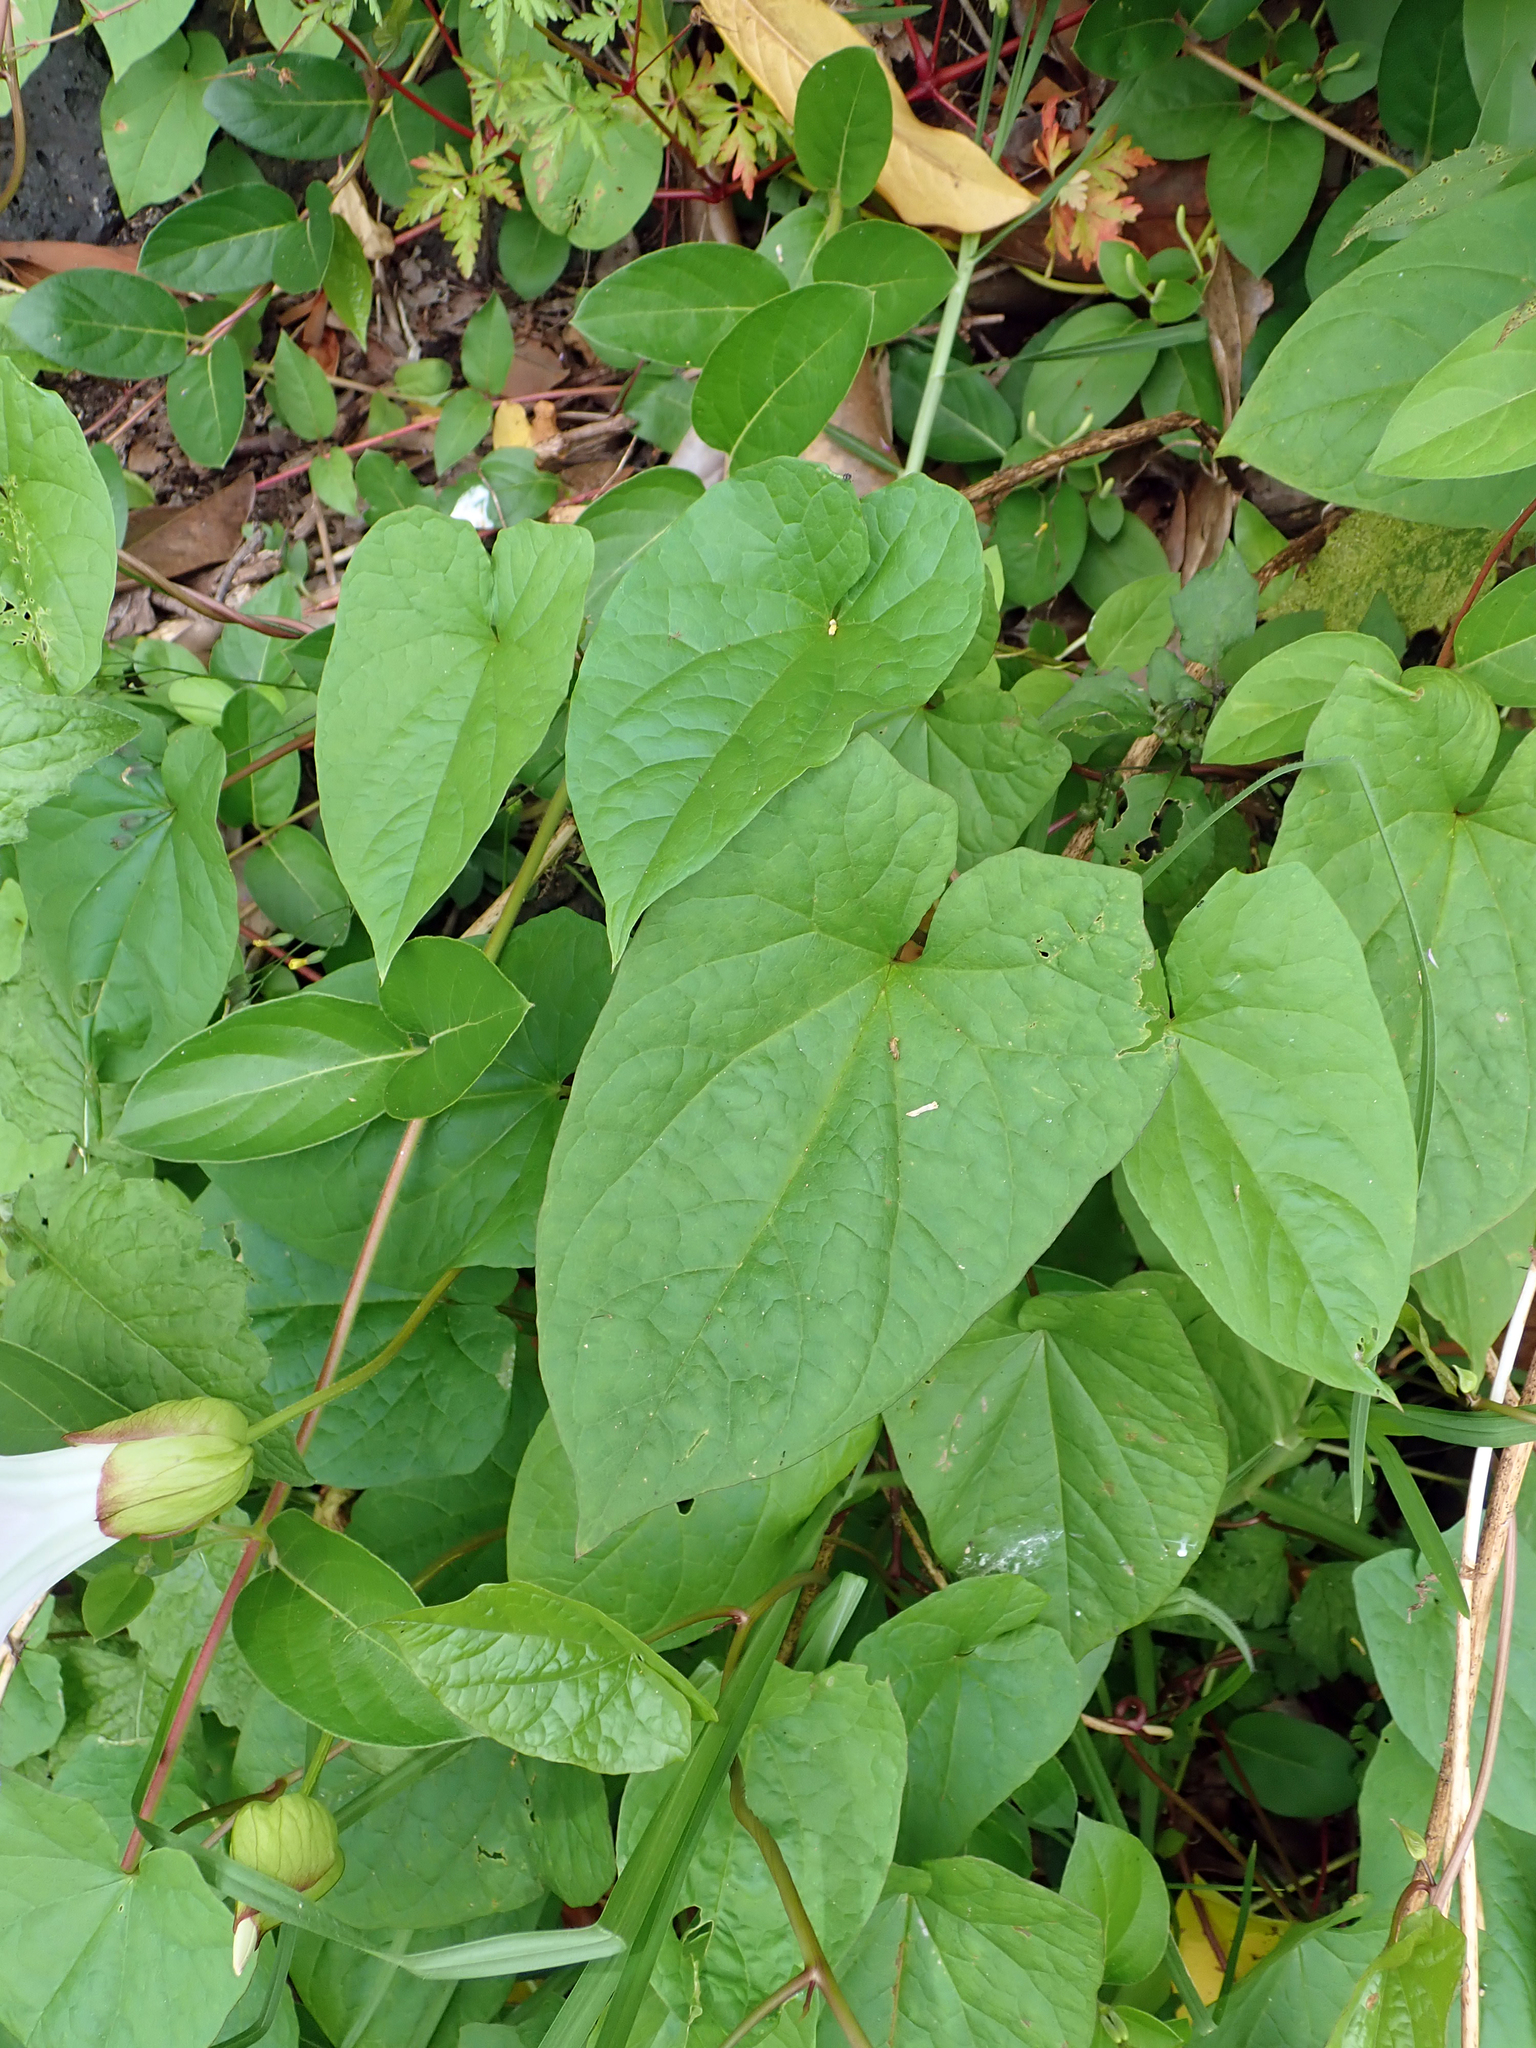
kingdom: Plantae
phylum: Tracheophyta
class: Magnoliopsida
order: Solanales
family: Convolvulaceae
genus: Calystegia
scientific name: Calystegia
